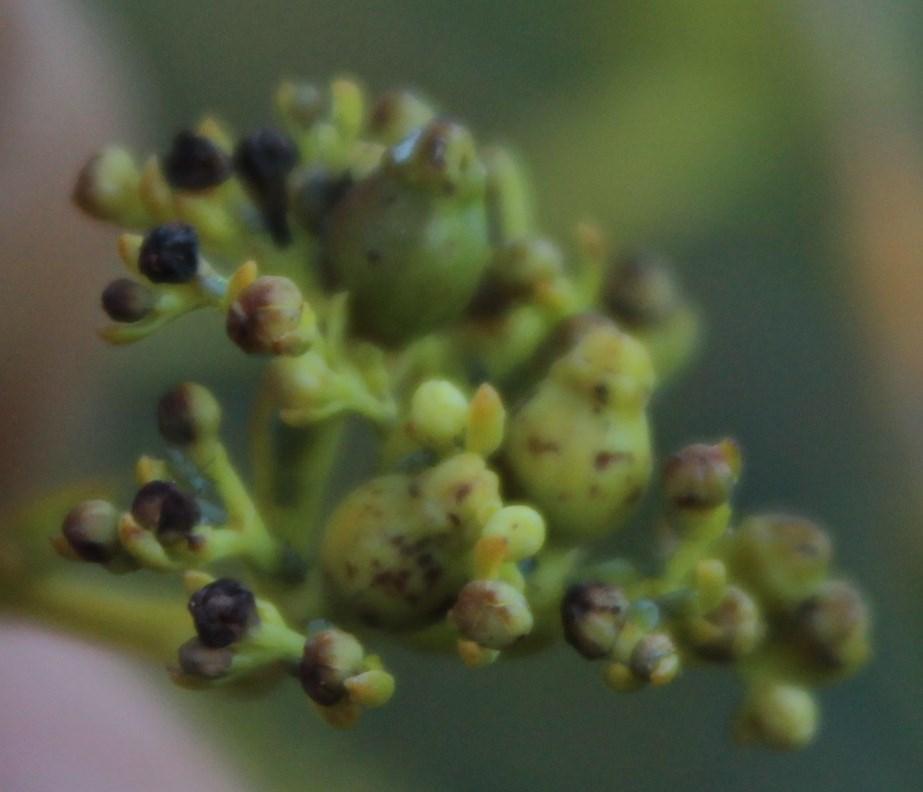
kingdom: Plantae
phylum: Tracheophyta
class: Magnoliopsida
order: Santalales
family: Thesiaceae
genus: Thesium
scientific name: Thesium strictum
